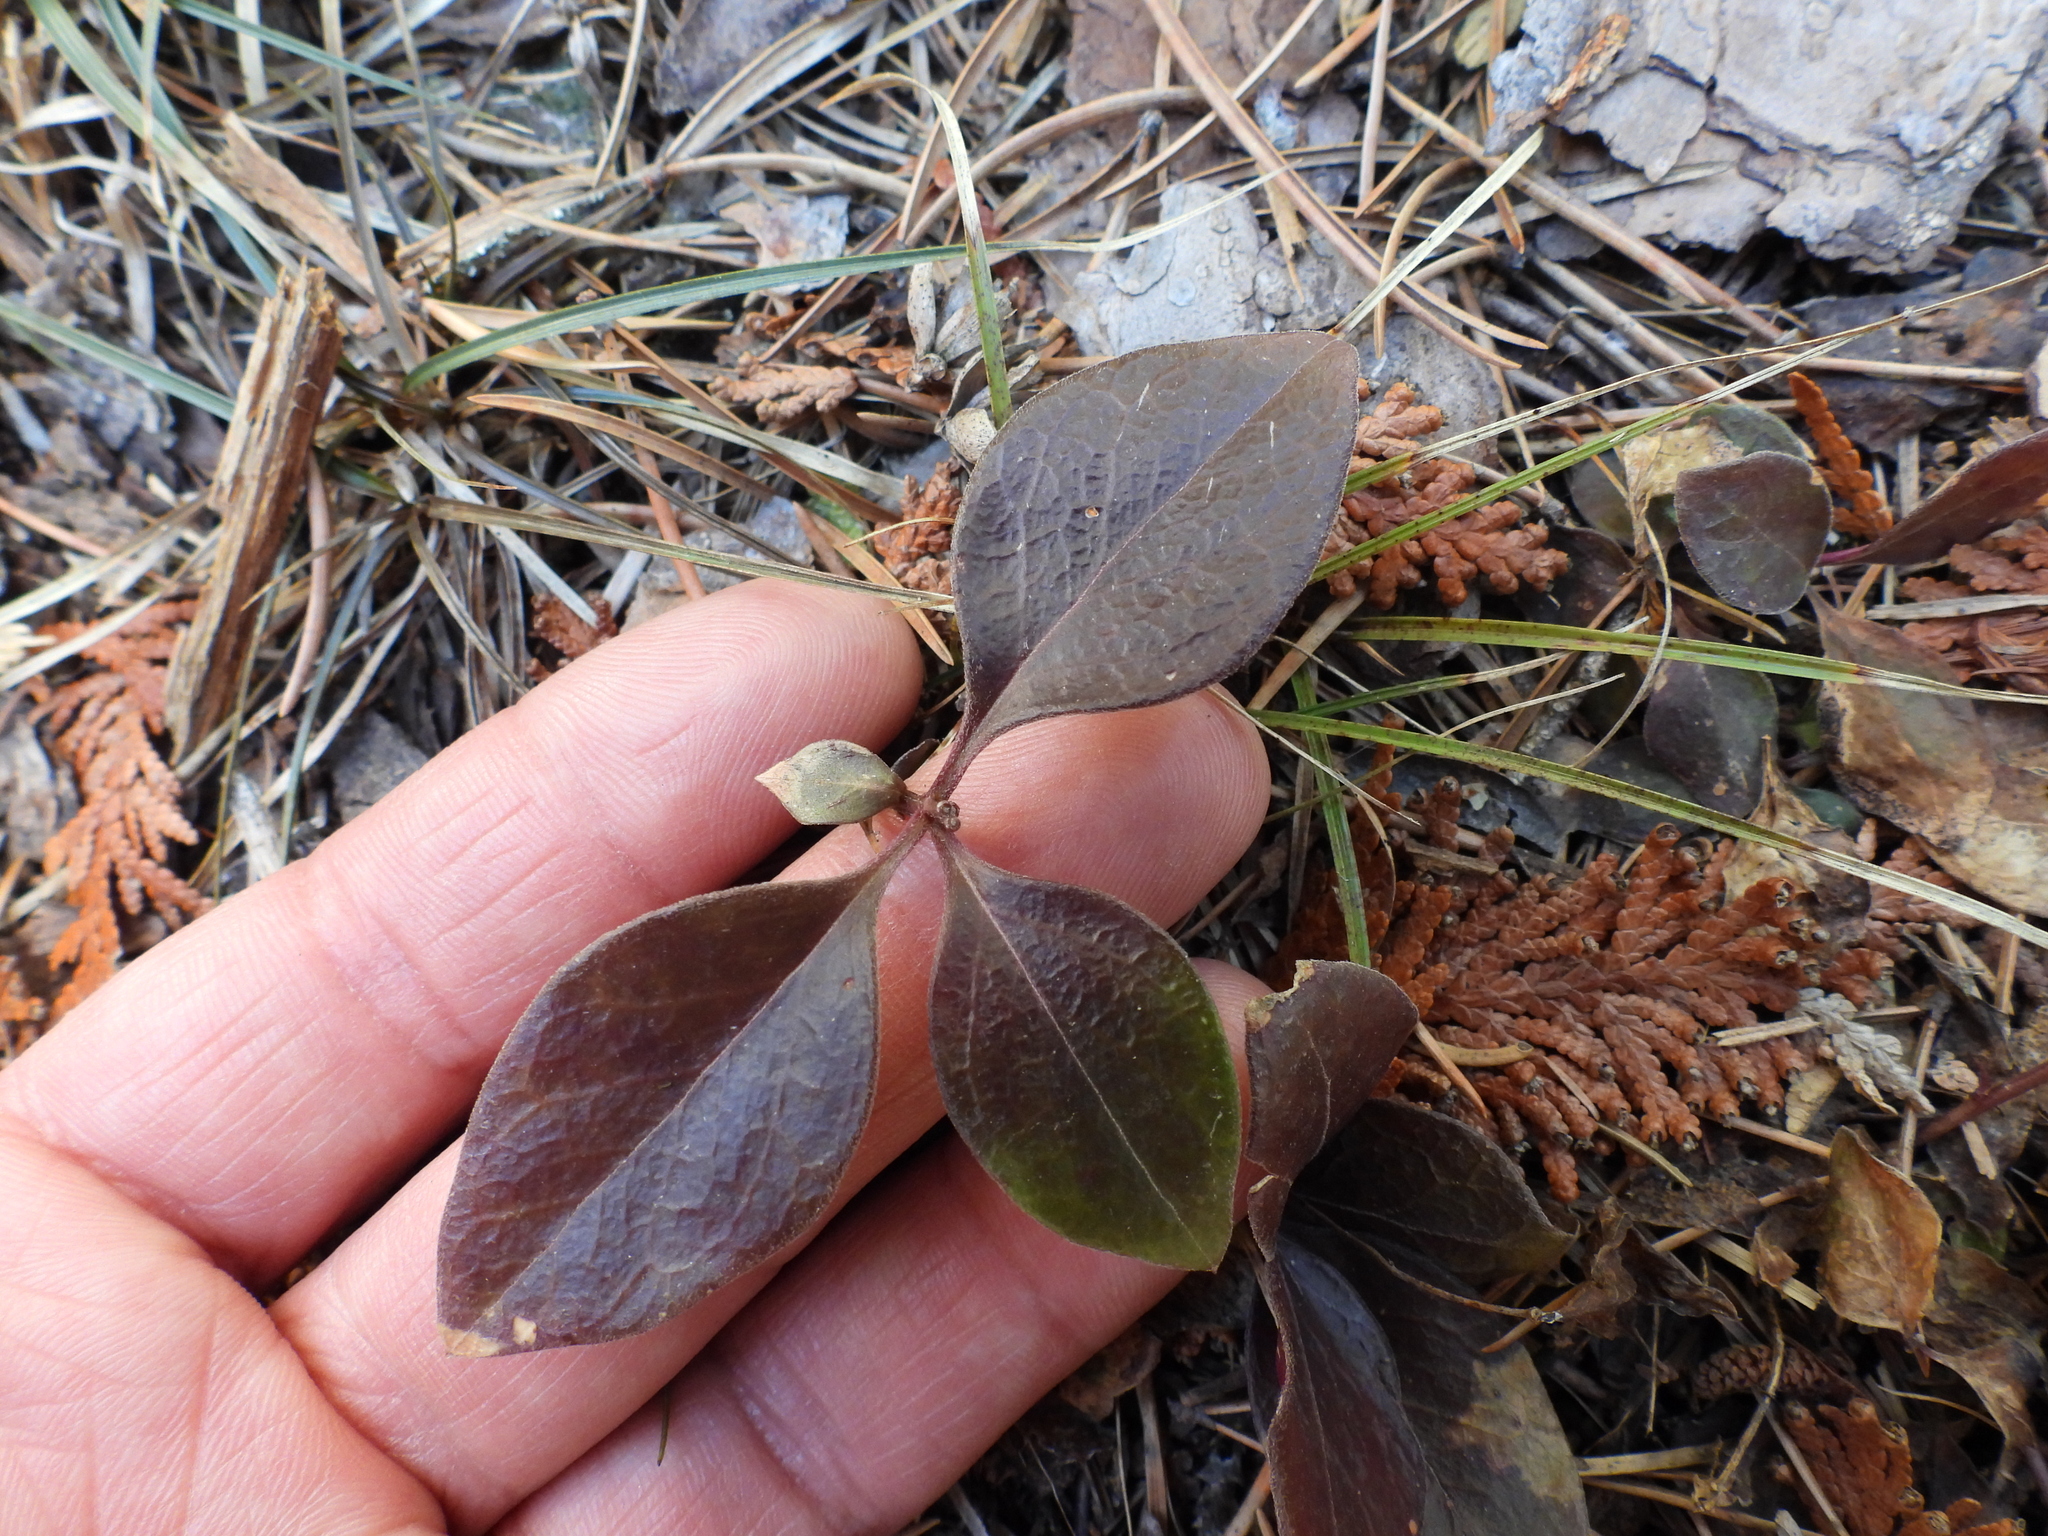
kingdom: Plantae
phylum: Tracheophyta
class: Magnoliopsida
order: Ericales
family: Ericaceae
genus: Gaultheria
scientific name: Gaultheria procumbens
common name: Checkerberry
